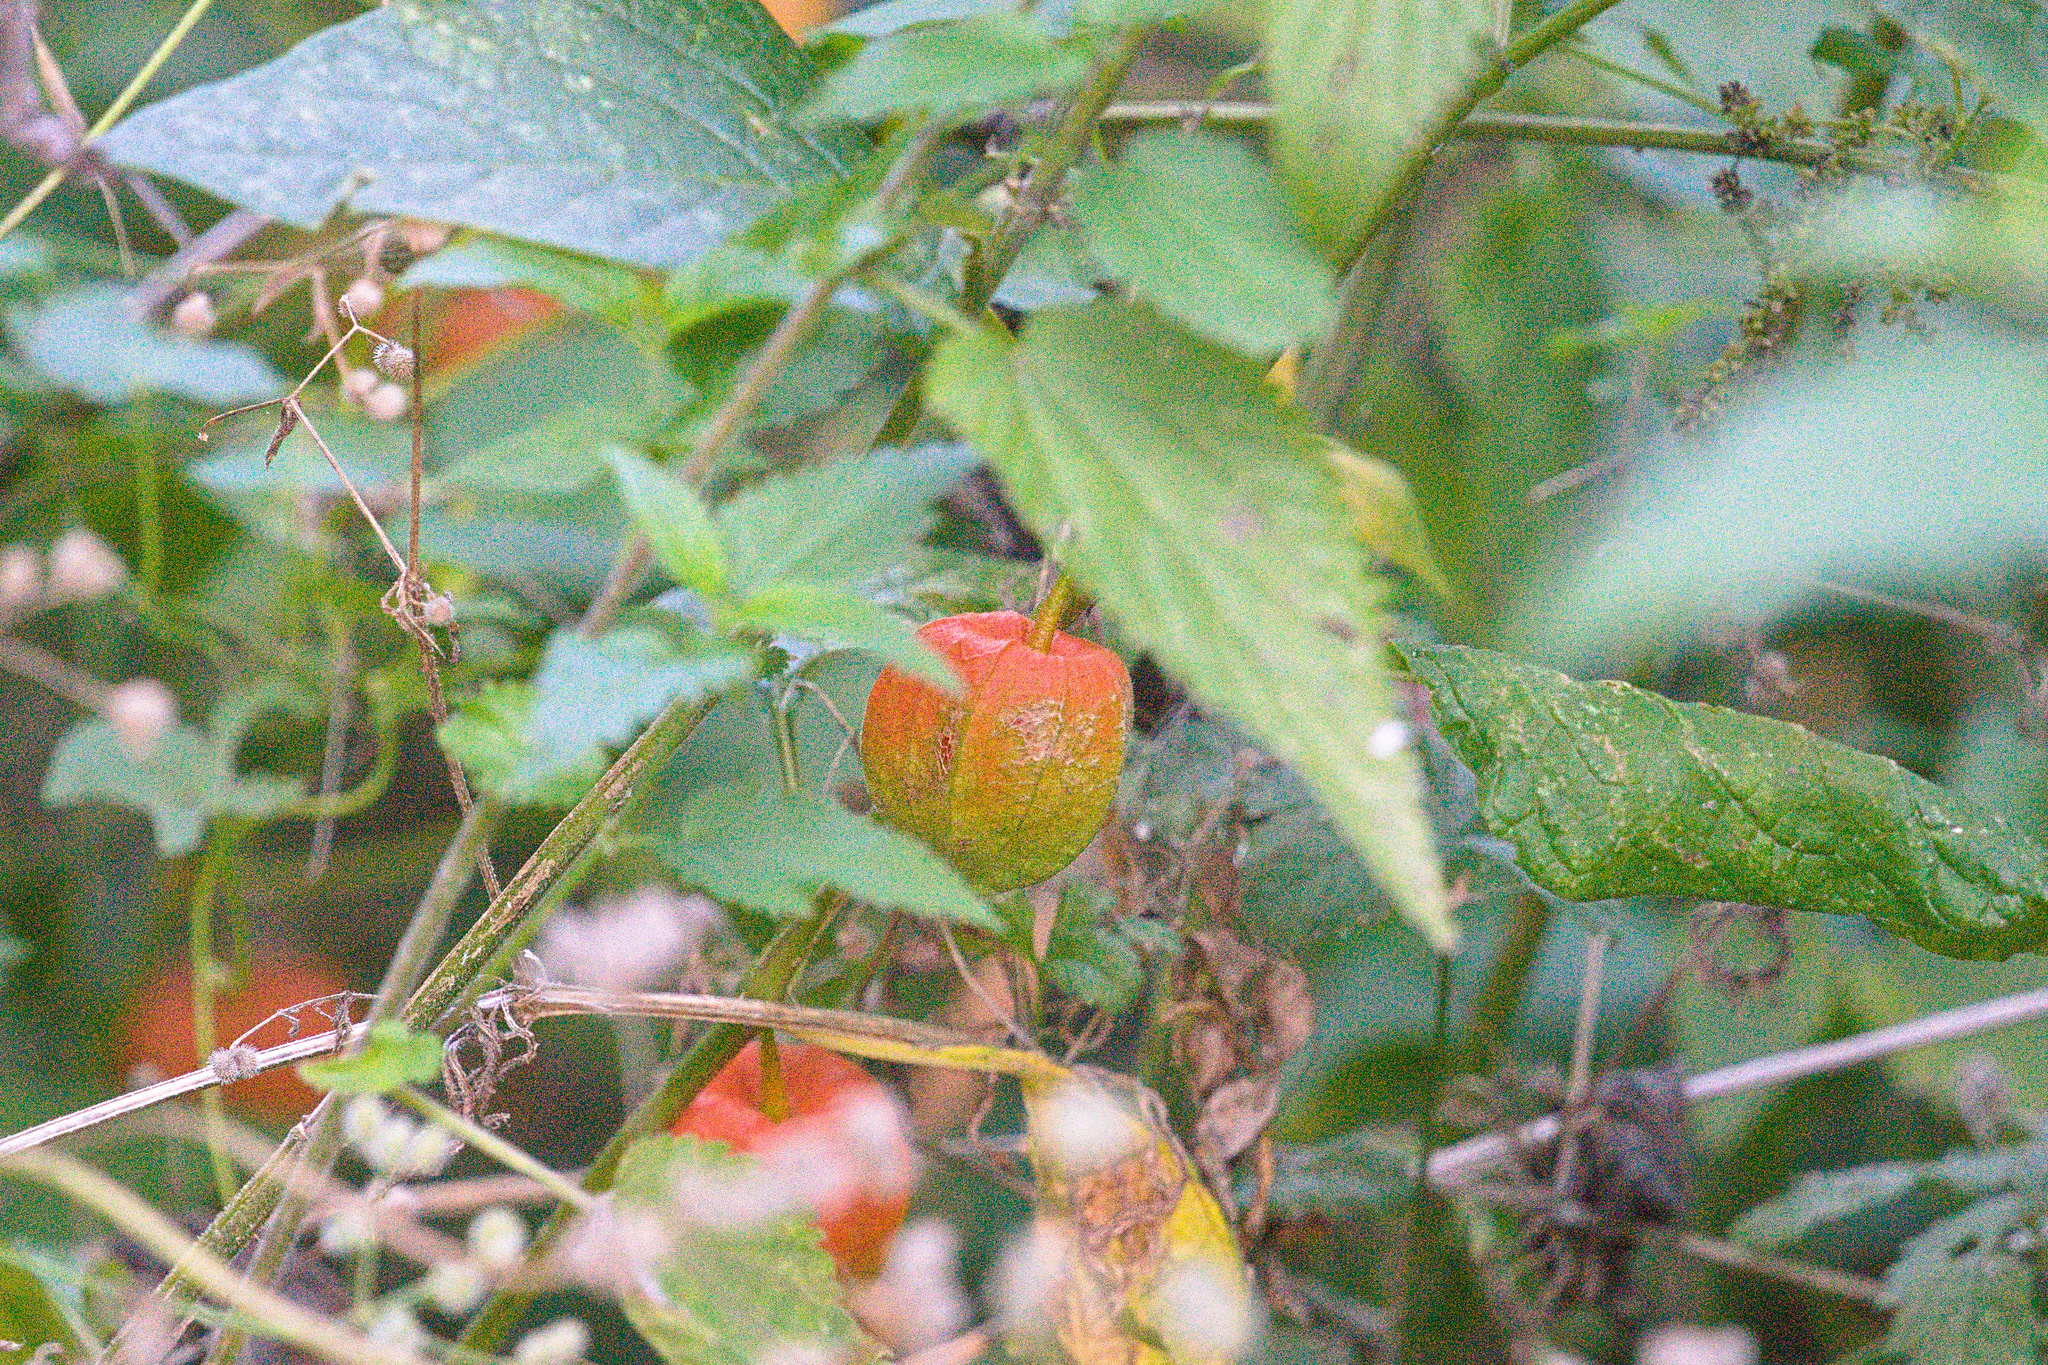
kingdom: Plantae
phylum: Tracheophyta
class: Magnoliopsida
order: Solanales
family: Solanaceae
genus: Alkekengi
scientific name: Alkekengi officinarum
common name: Japanese-lantern
